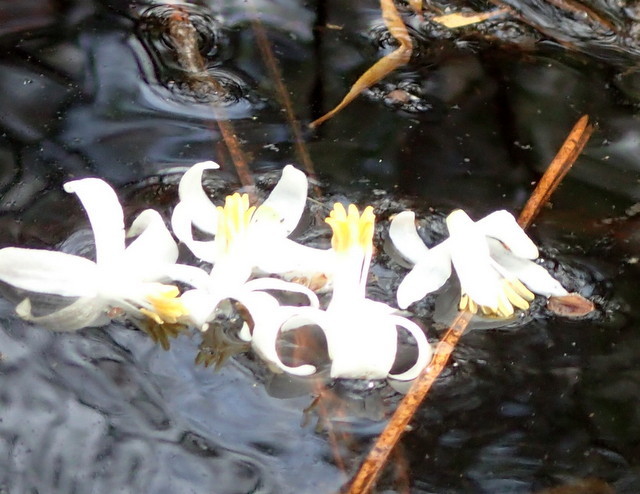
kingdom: Plantae
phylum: Tracheophyta
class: Magnoliopsida
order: Ericales
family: Styracaceae
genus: Styrax
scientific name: Styrax americanus
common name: American snowbell
